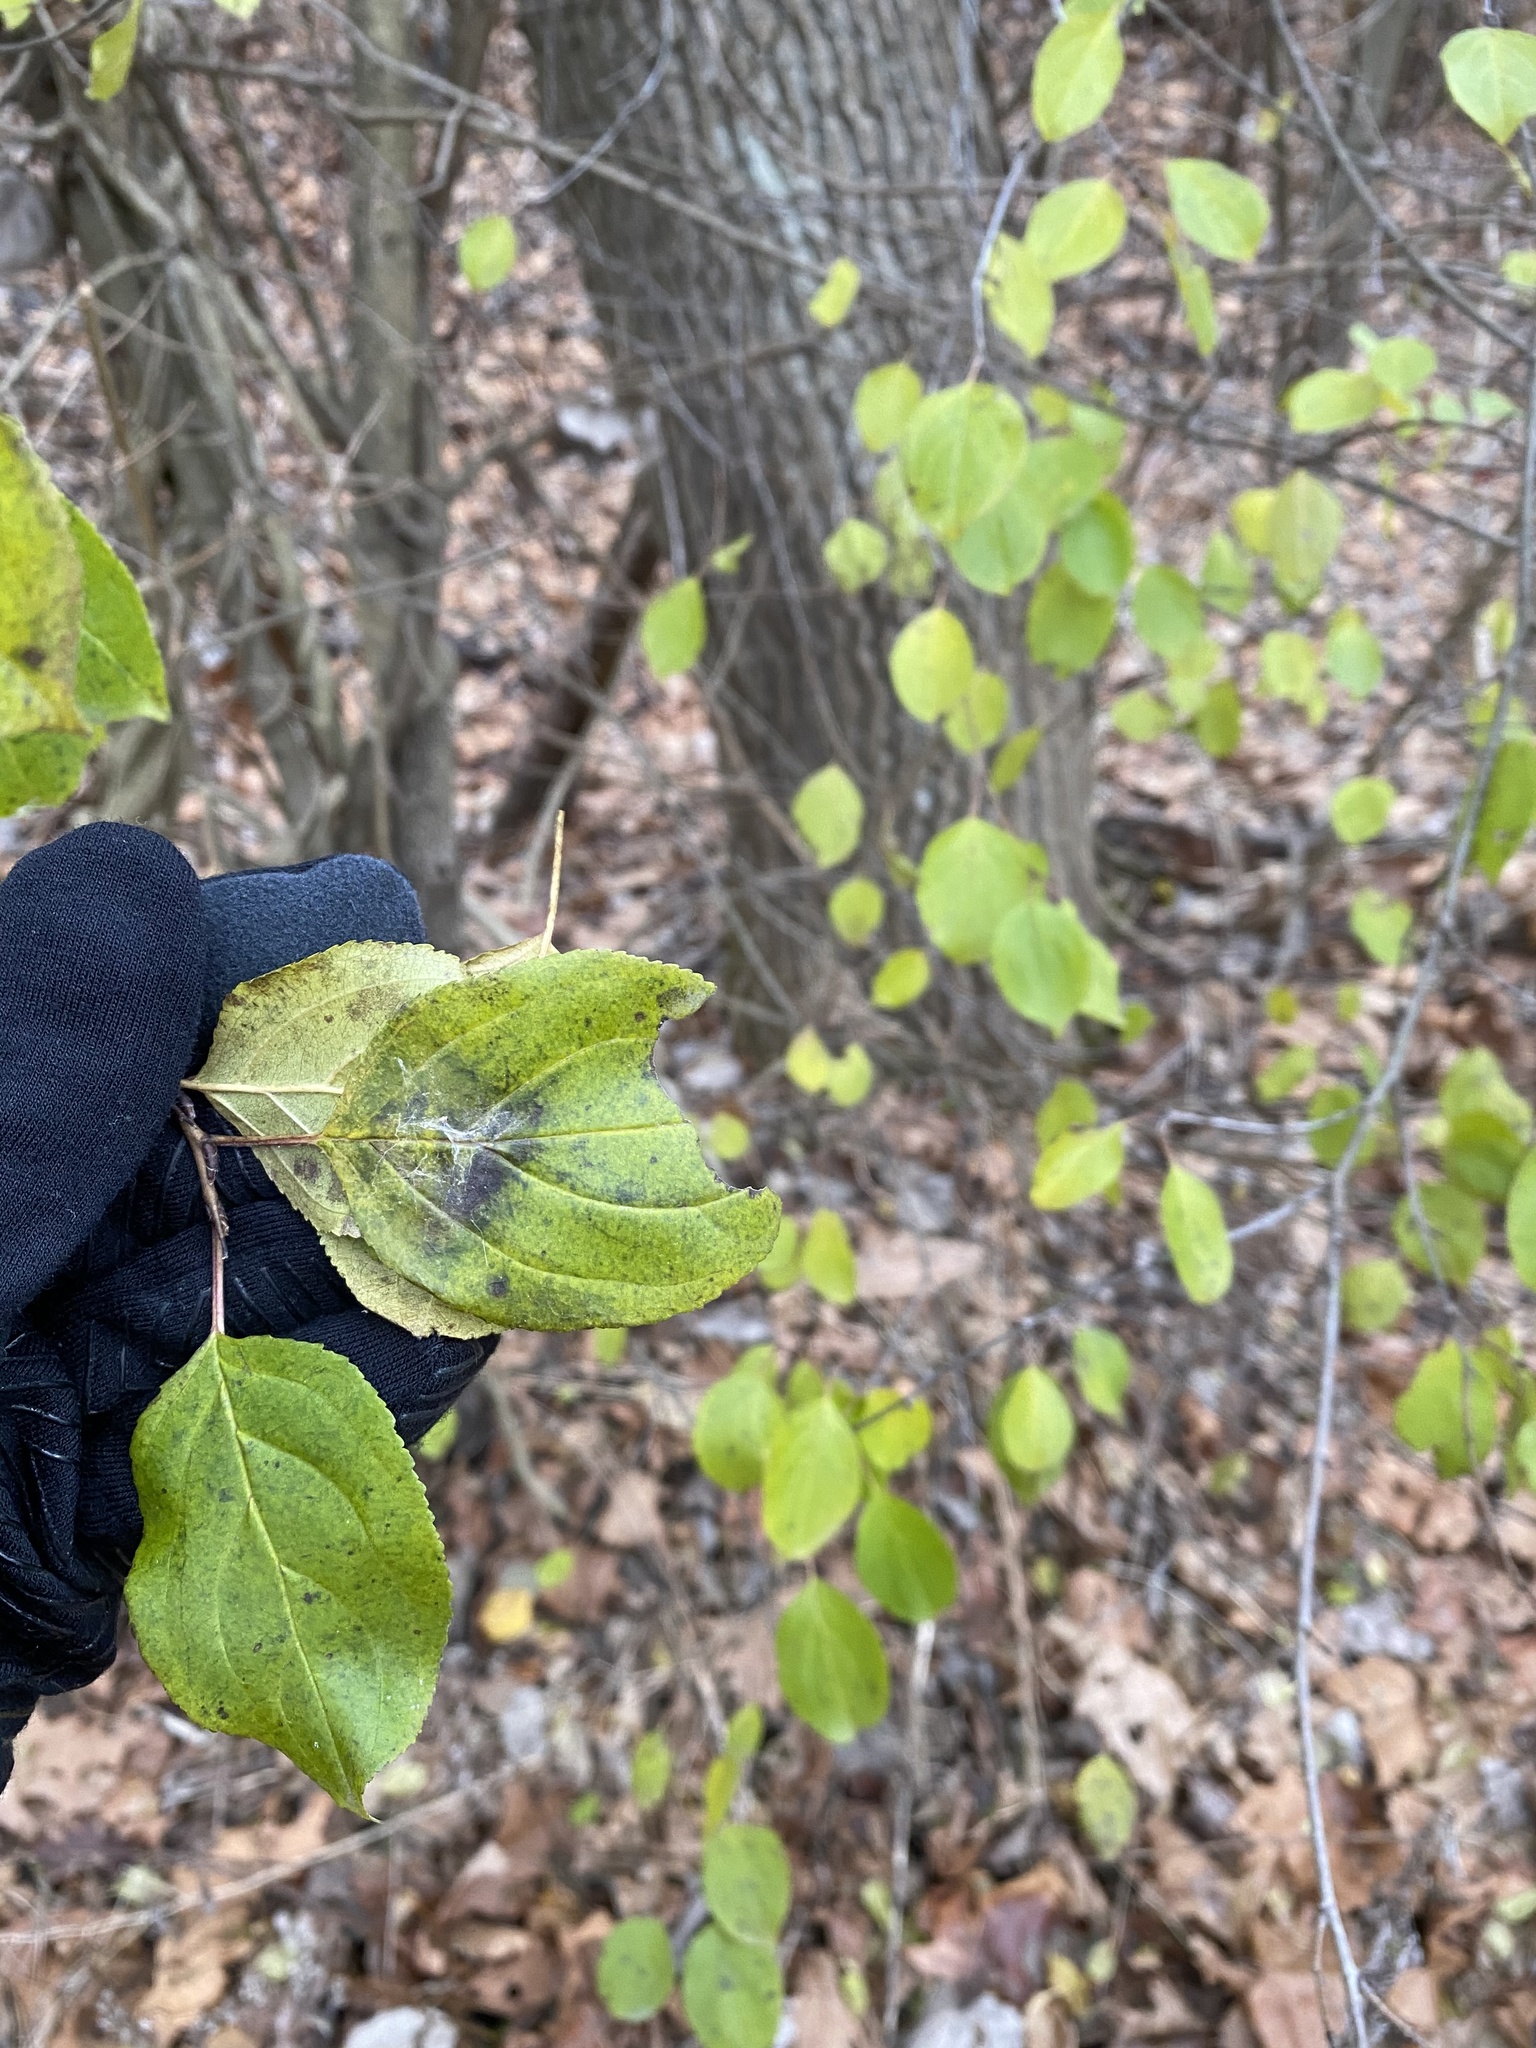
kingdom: Plantae
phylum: Tracheophyta
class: Magnoliopsida
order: Rosales
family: Rhamnaceae
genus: Rhamnus
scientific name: Rhamnus cathartica
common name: Common buckthorn
